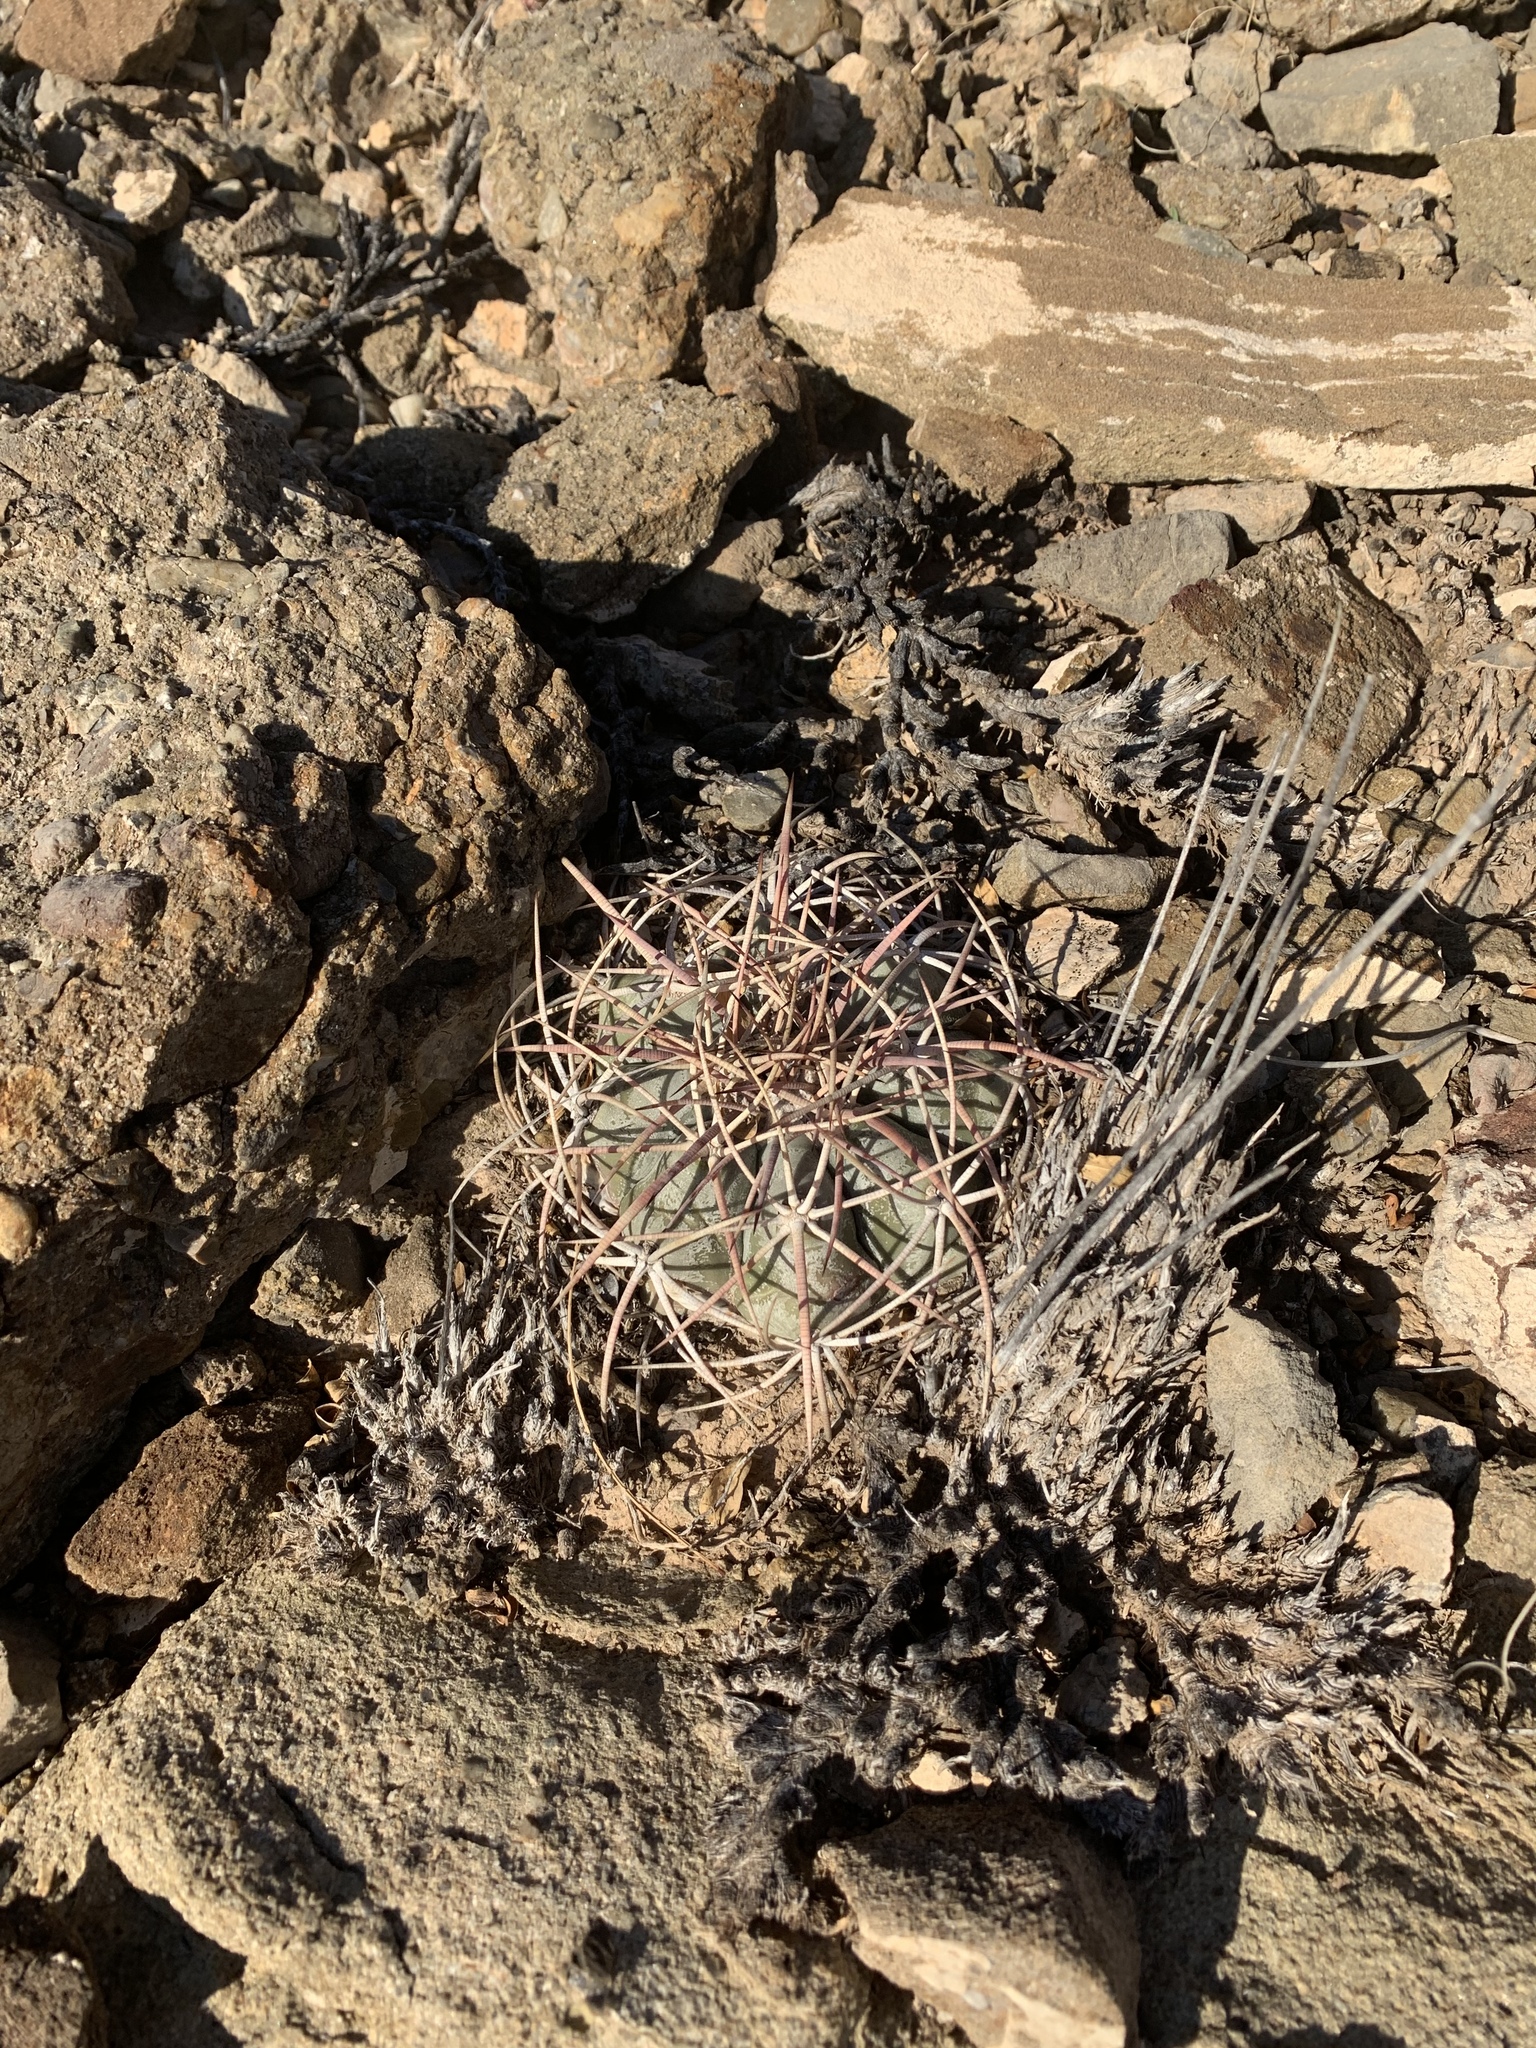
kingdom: Plantae
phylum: Tracheophyta
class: Magnoliopsida
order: Caryophyllales
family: Cactaceae
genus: Echinocactus
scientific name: Echinocactus horizonthalonius
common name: Devilshead
